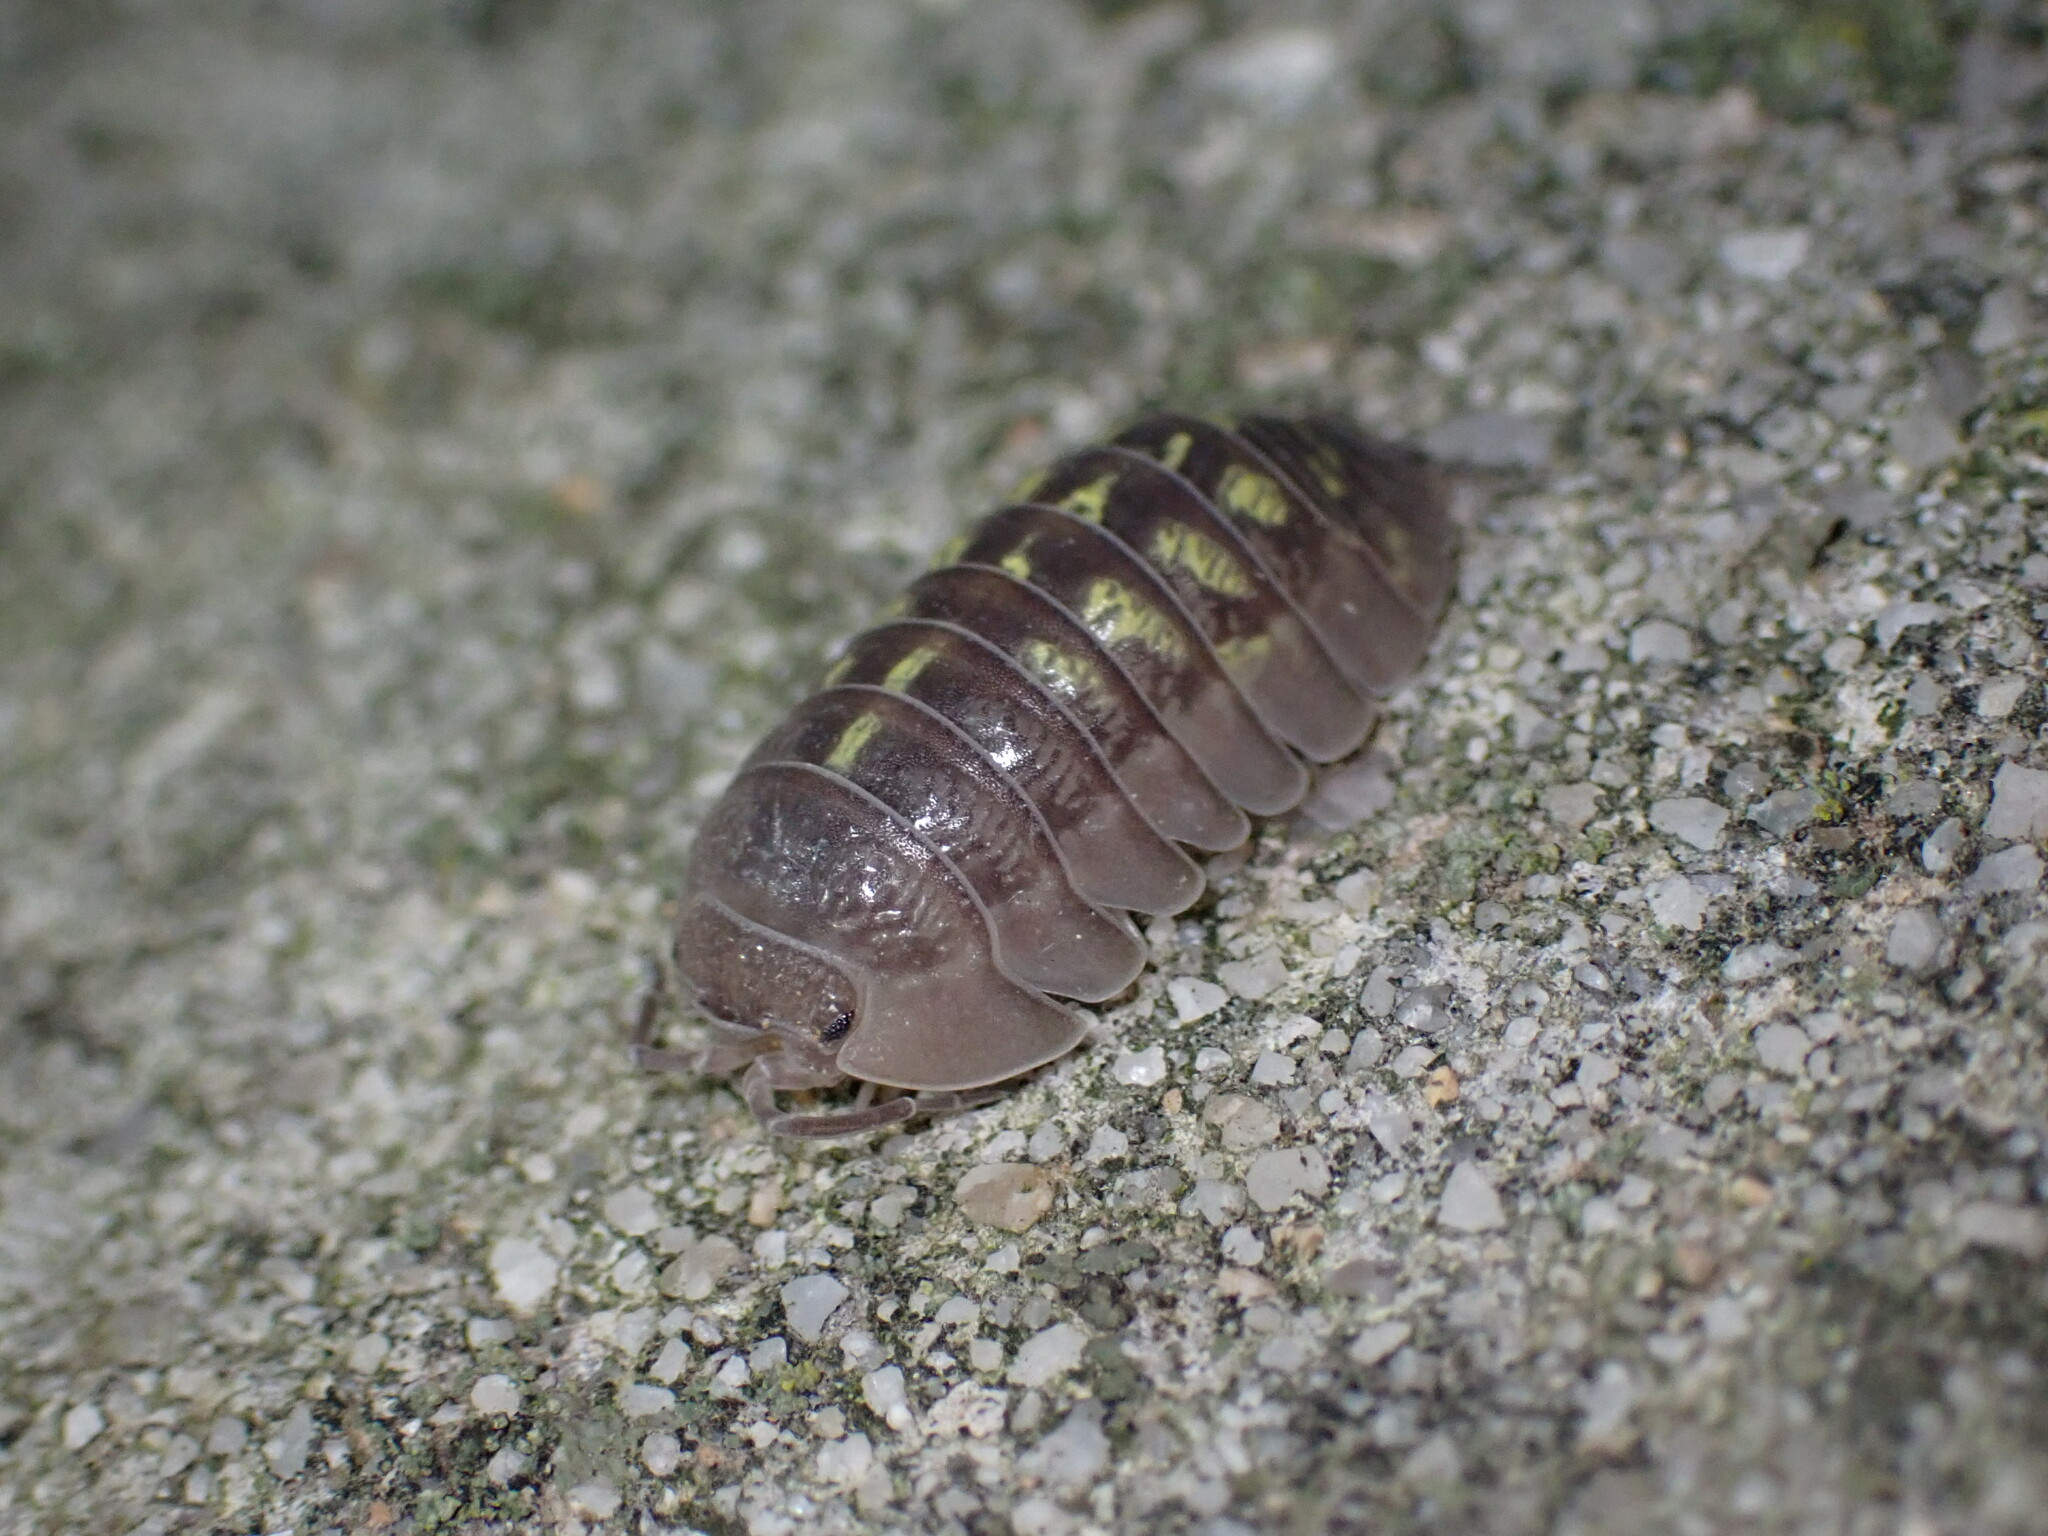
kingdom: Animalia
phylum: Arthropoda
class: Malacostraca
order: Isopoda
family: Armadillidiidae
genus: Armadillidium
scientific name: Armadillidium granulatum
